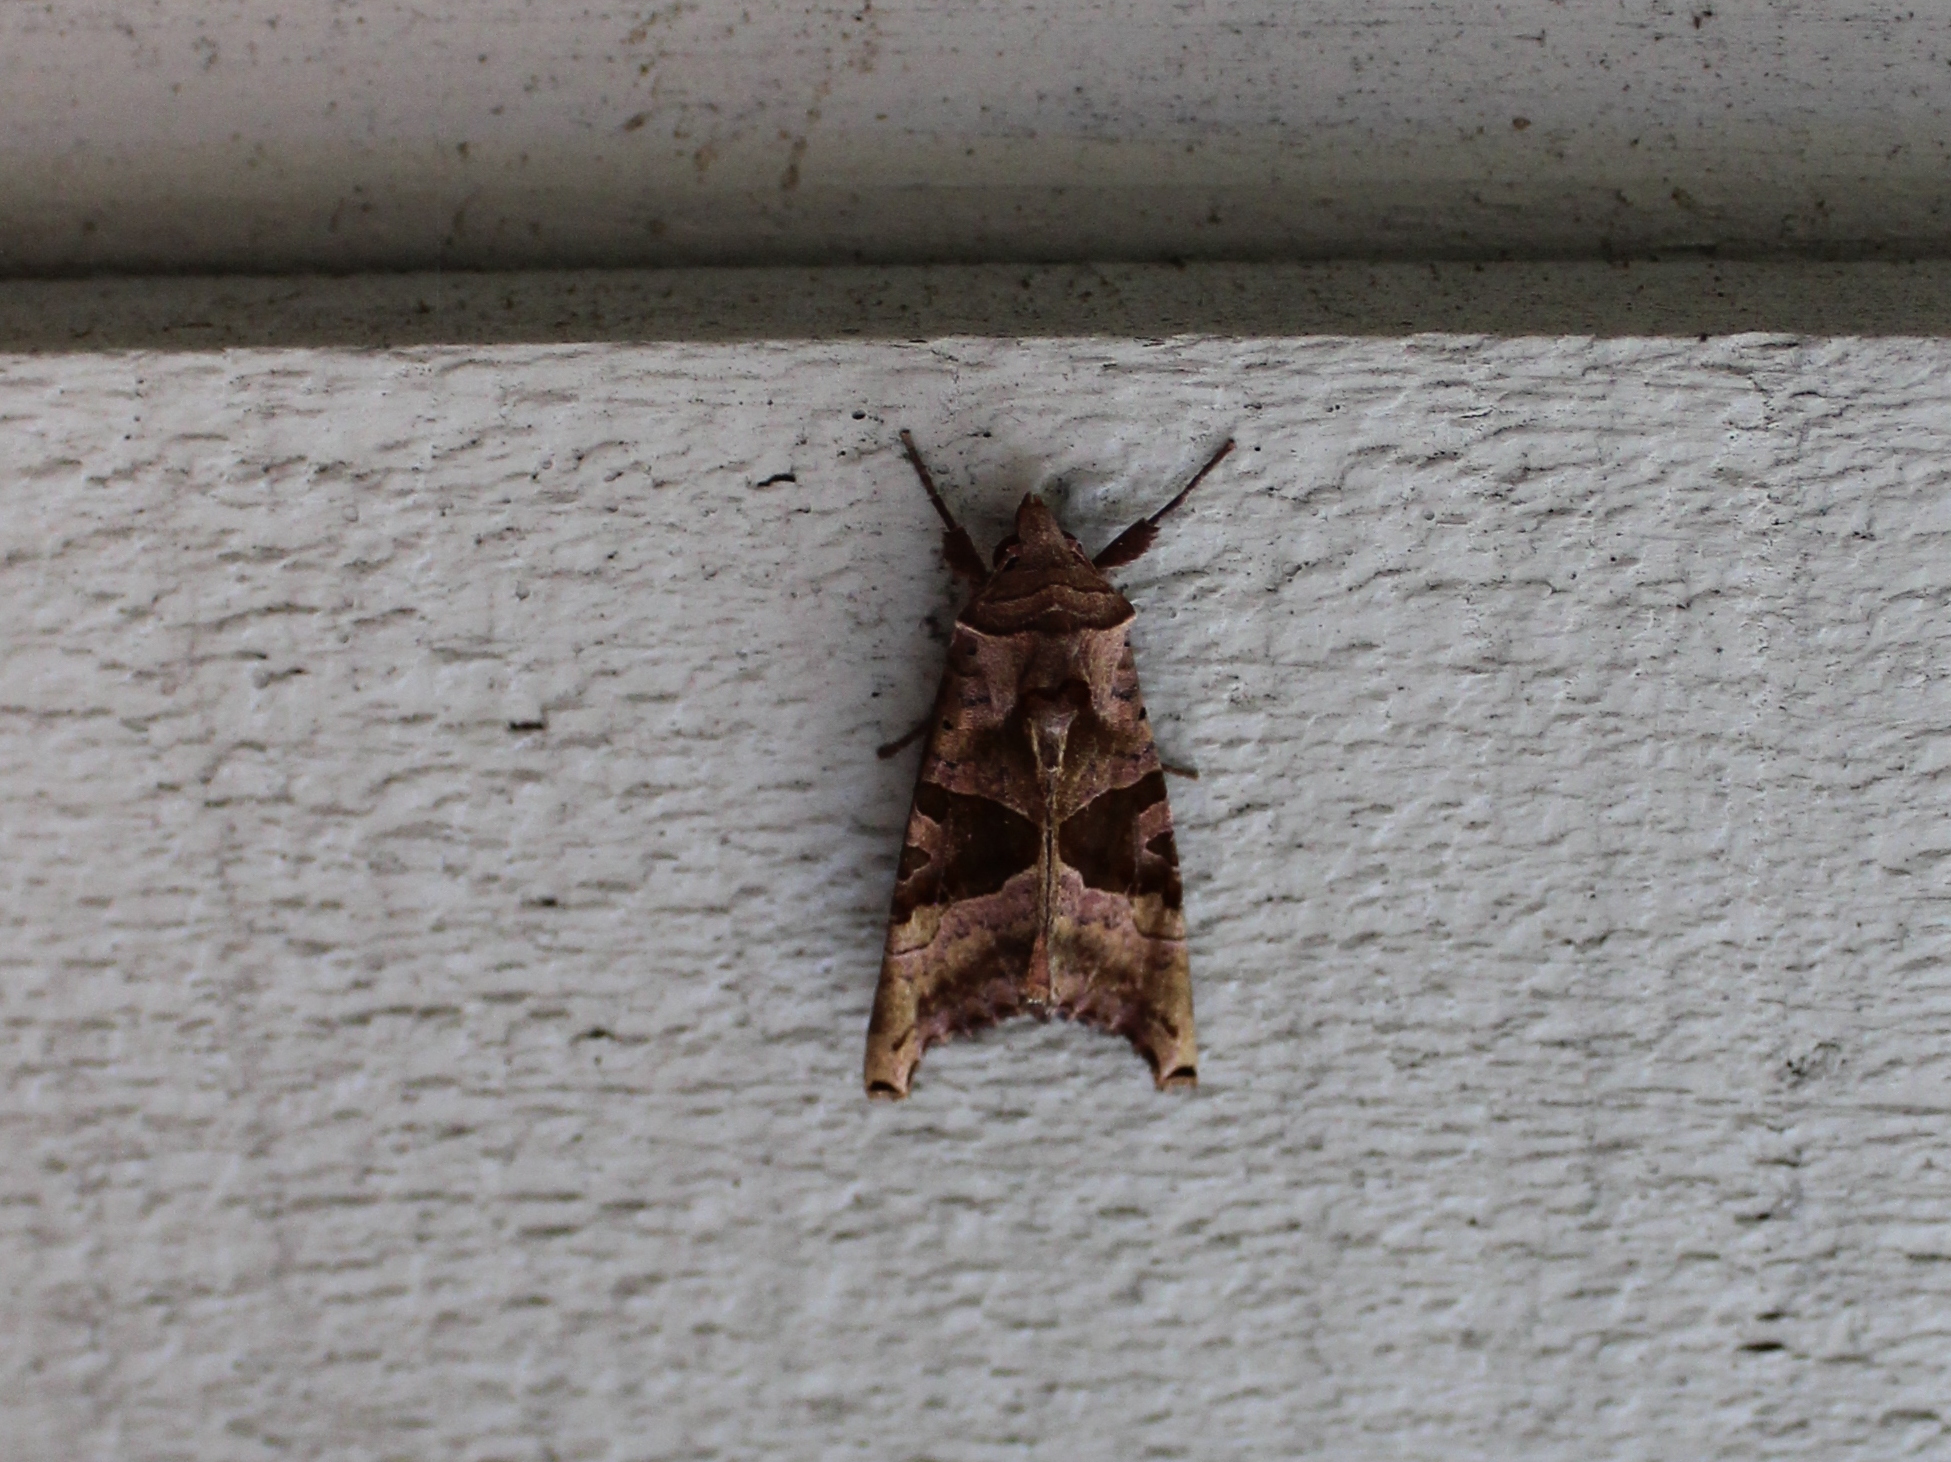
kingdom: Animalia
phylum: Arthropoda
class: Insecta
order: Lepidoptera
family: Noctuidae
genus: Phlogophora
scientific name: Phlogophora periculosa
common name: Brown angle shades
